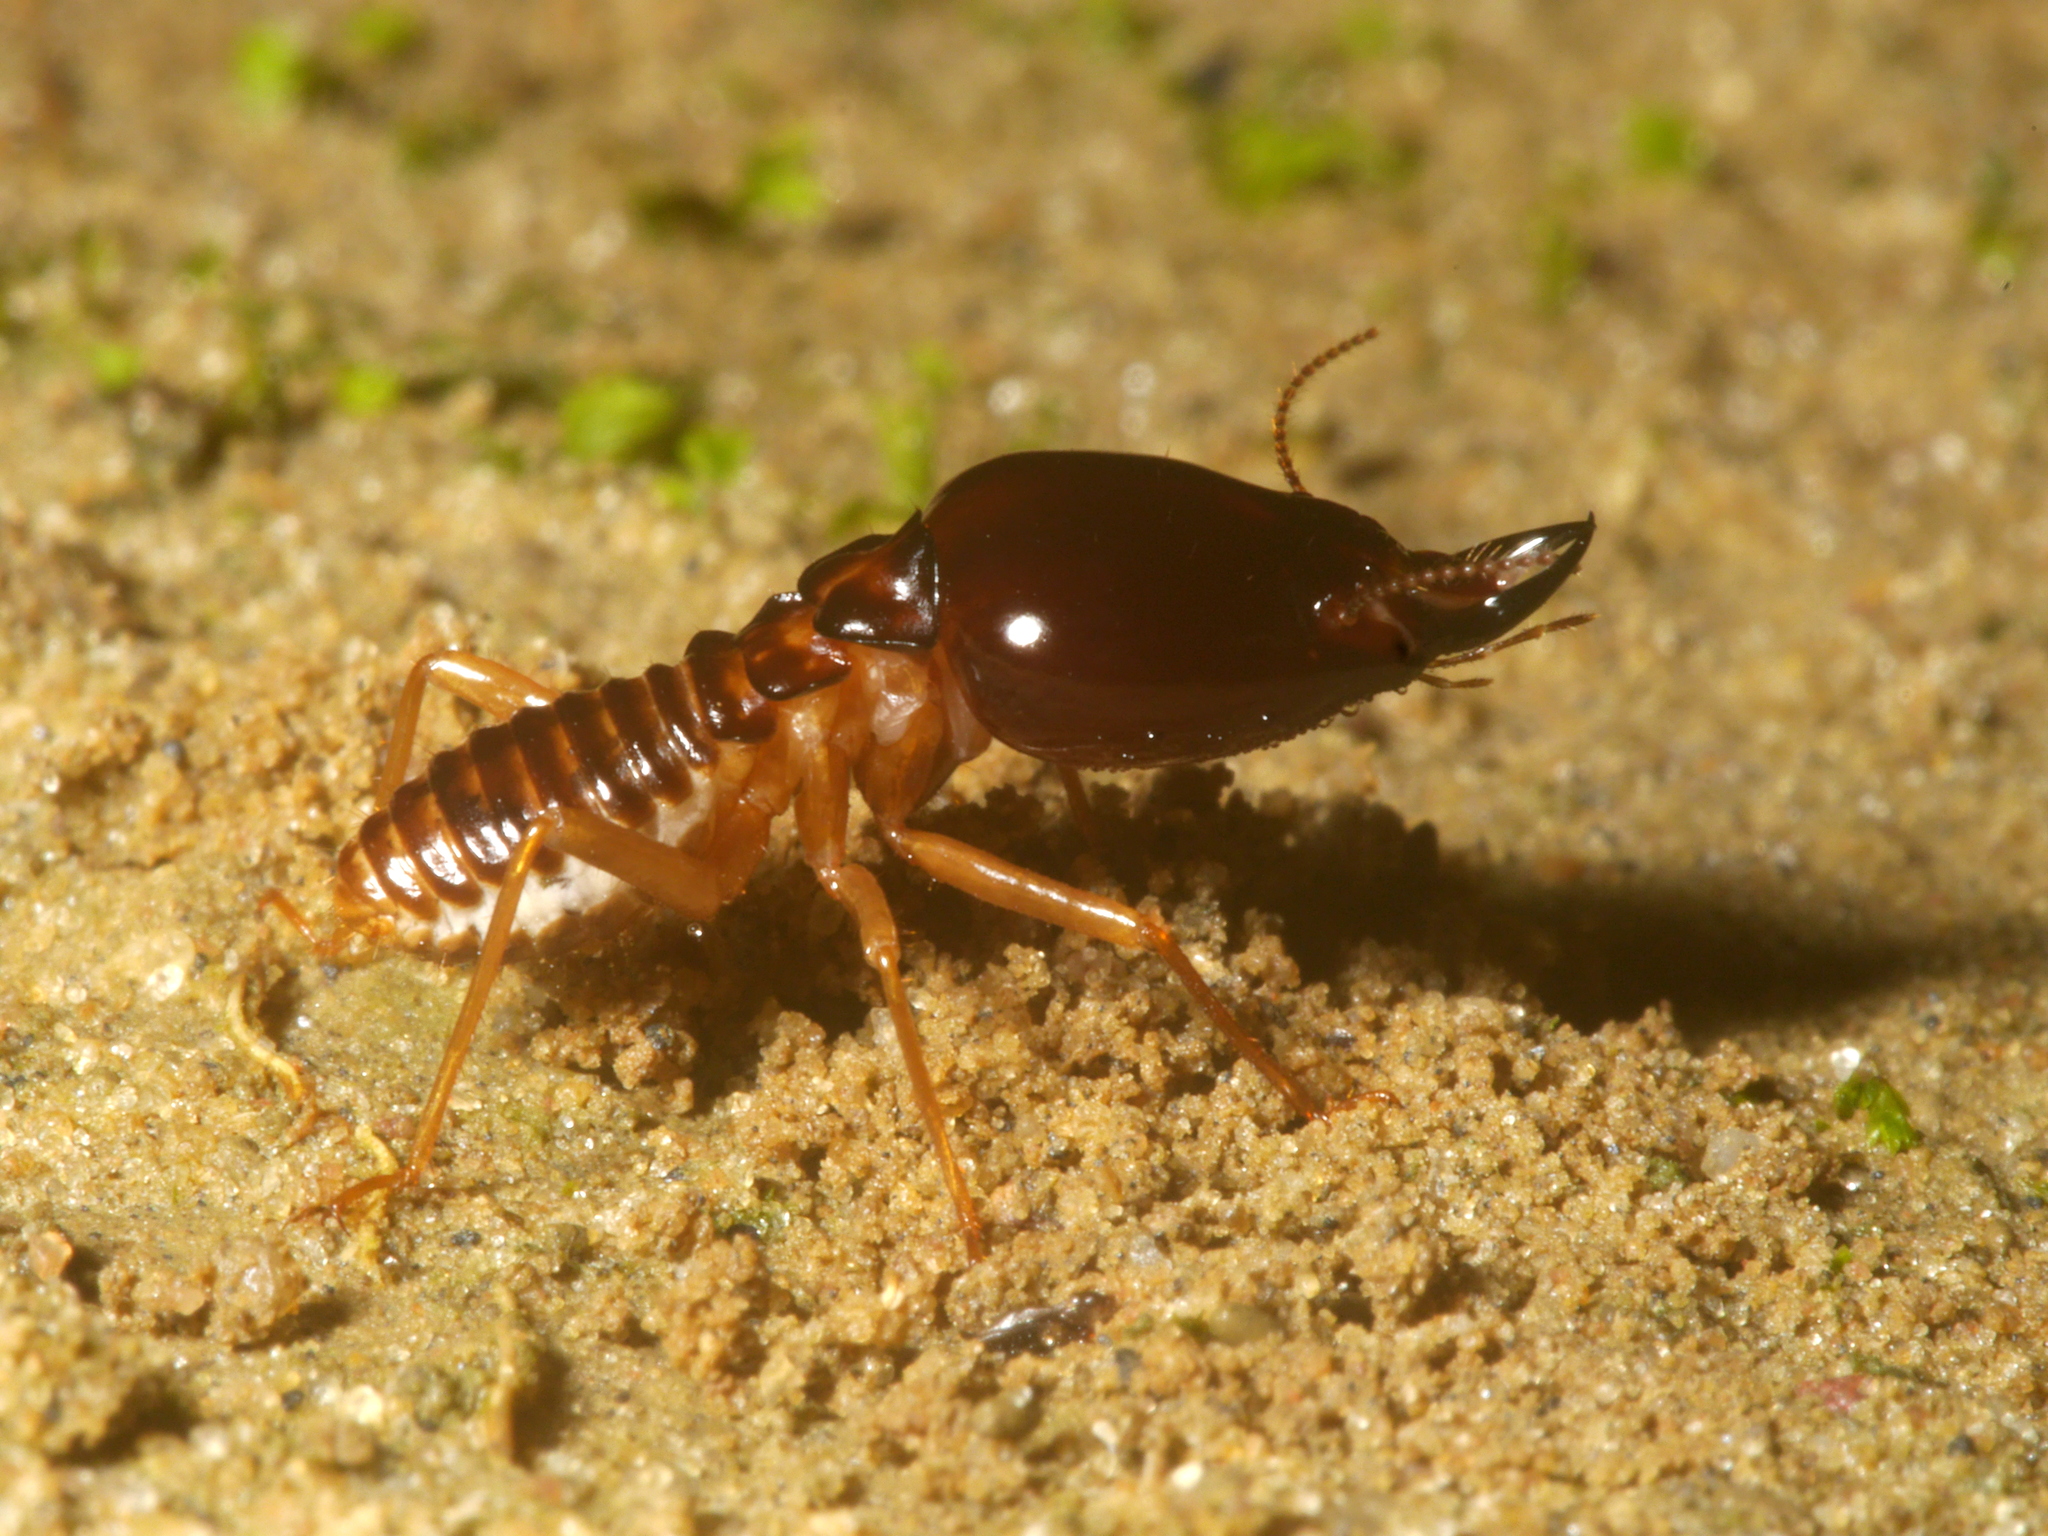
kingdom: Animalia
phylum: Arthropoda
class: Insecta
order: Blattodea
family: Termitidae
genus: Macrotermes
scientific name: Macrotermes amplus
